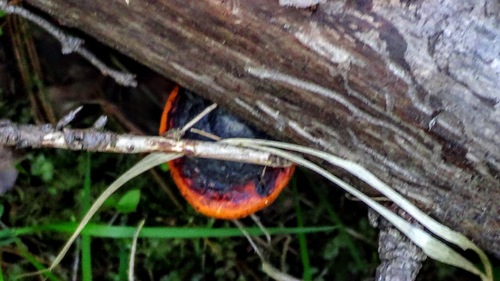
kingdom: Fungi
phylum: Basidiomycota
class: Agaricomycetes
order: Polyporales
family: Fomitopsidaceae
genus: Fomitopsis
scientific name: Fomitopsis pinicola
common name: Red-belted bracket
